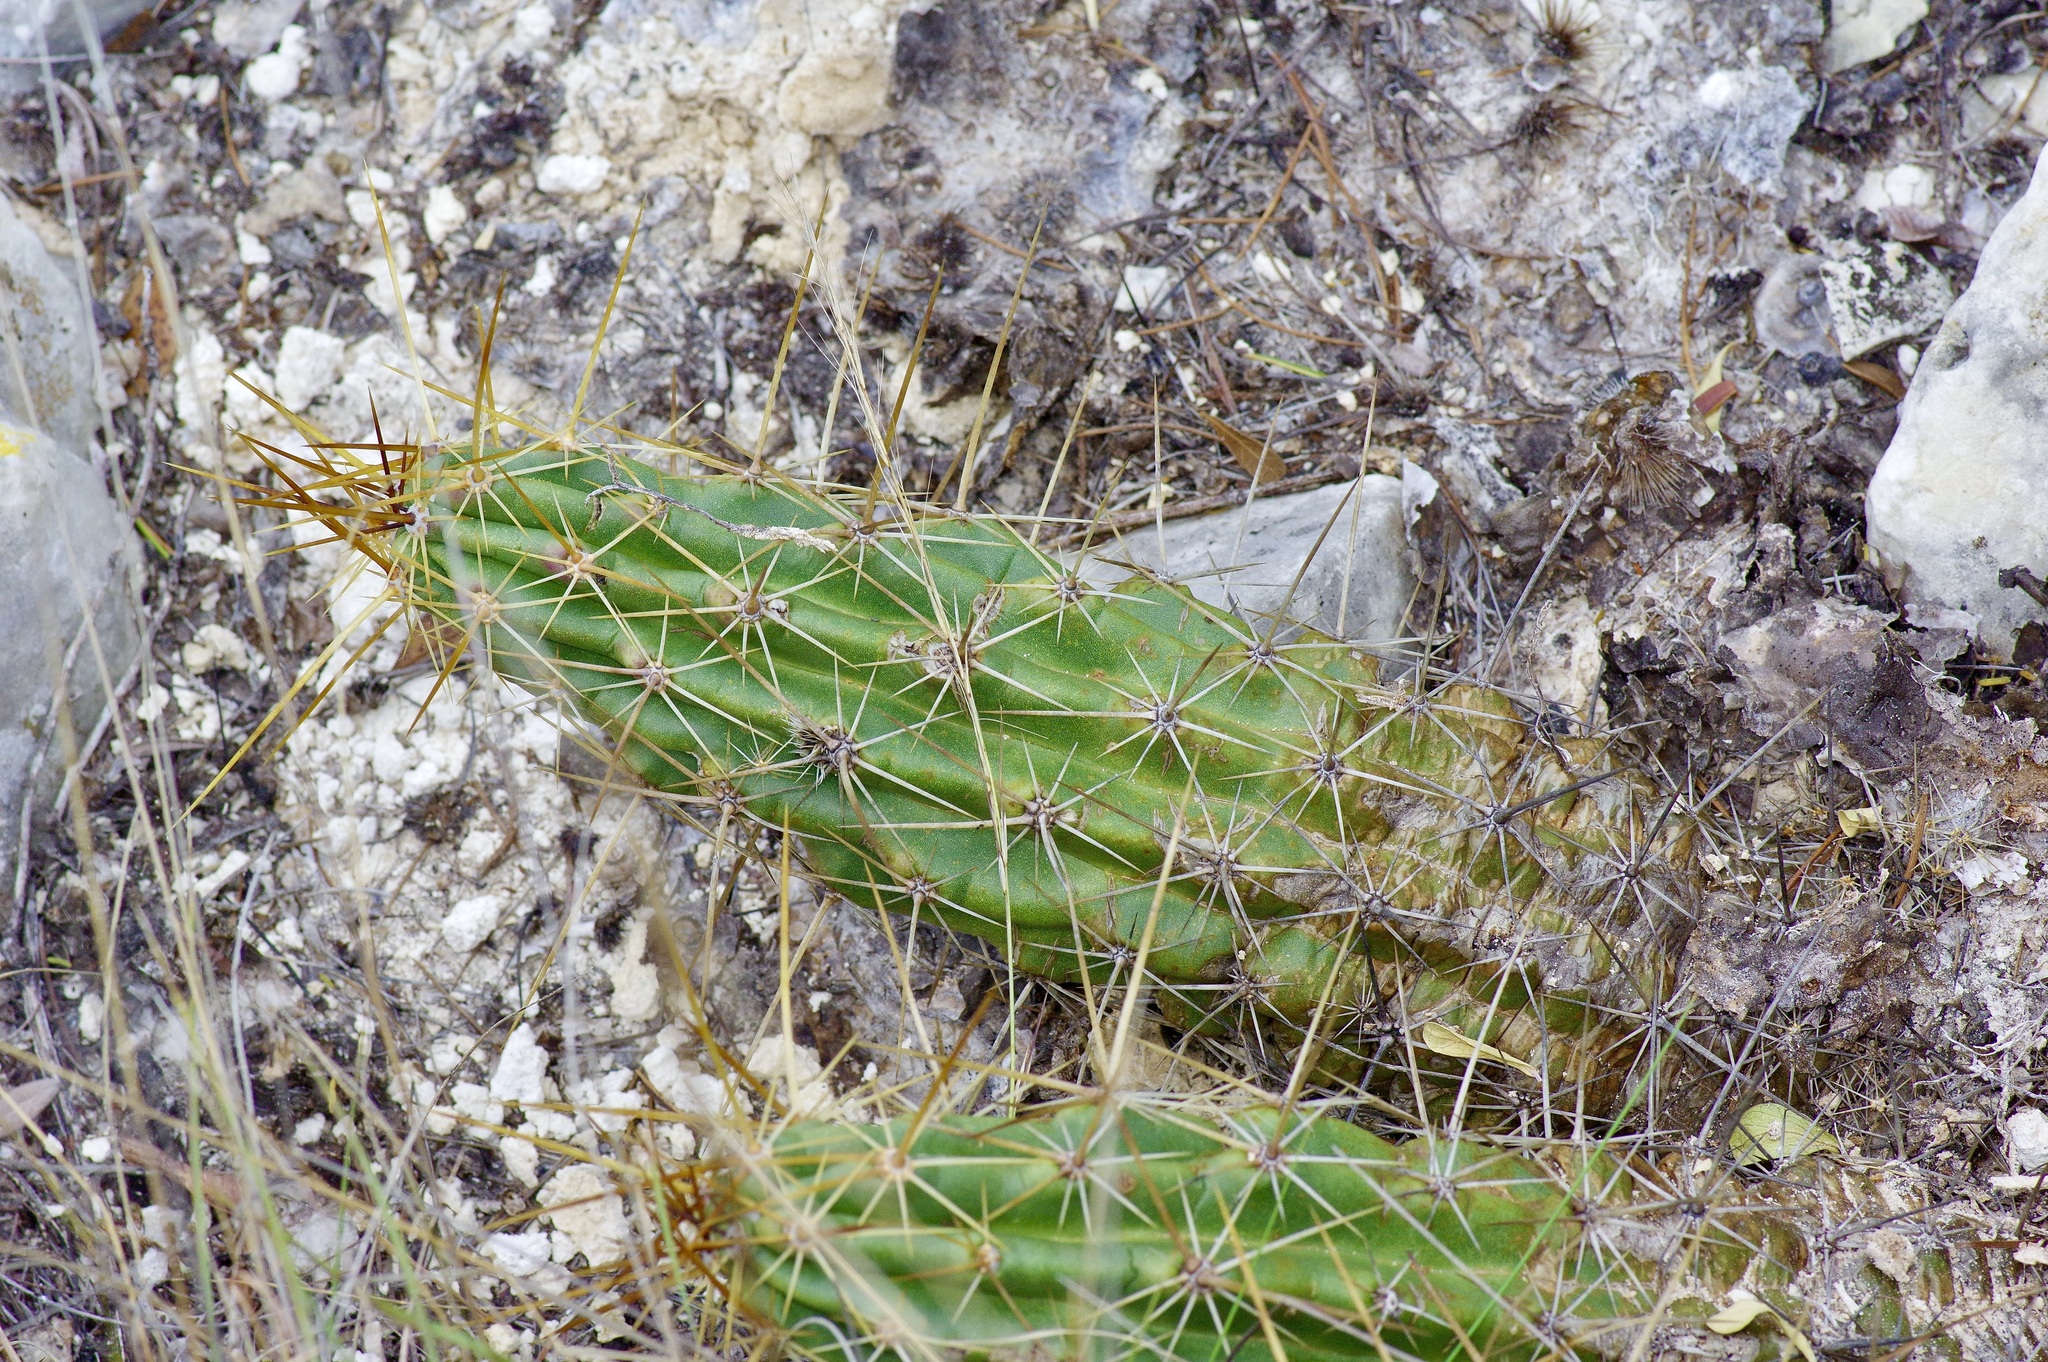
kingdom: Plantae
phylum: Tracheophyta
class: Magnoliopsida
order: Caryophyllales
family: Cactaceae
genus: Echinocereus
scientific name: Echinocereus enneacanthus
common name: Pitaya
